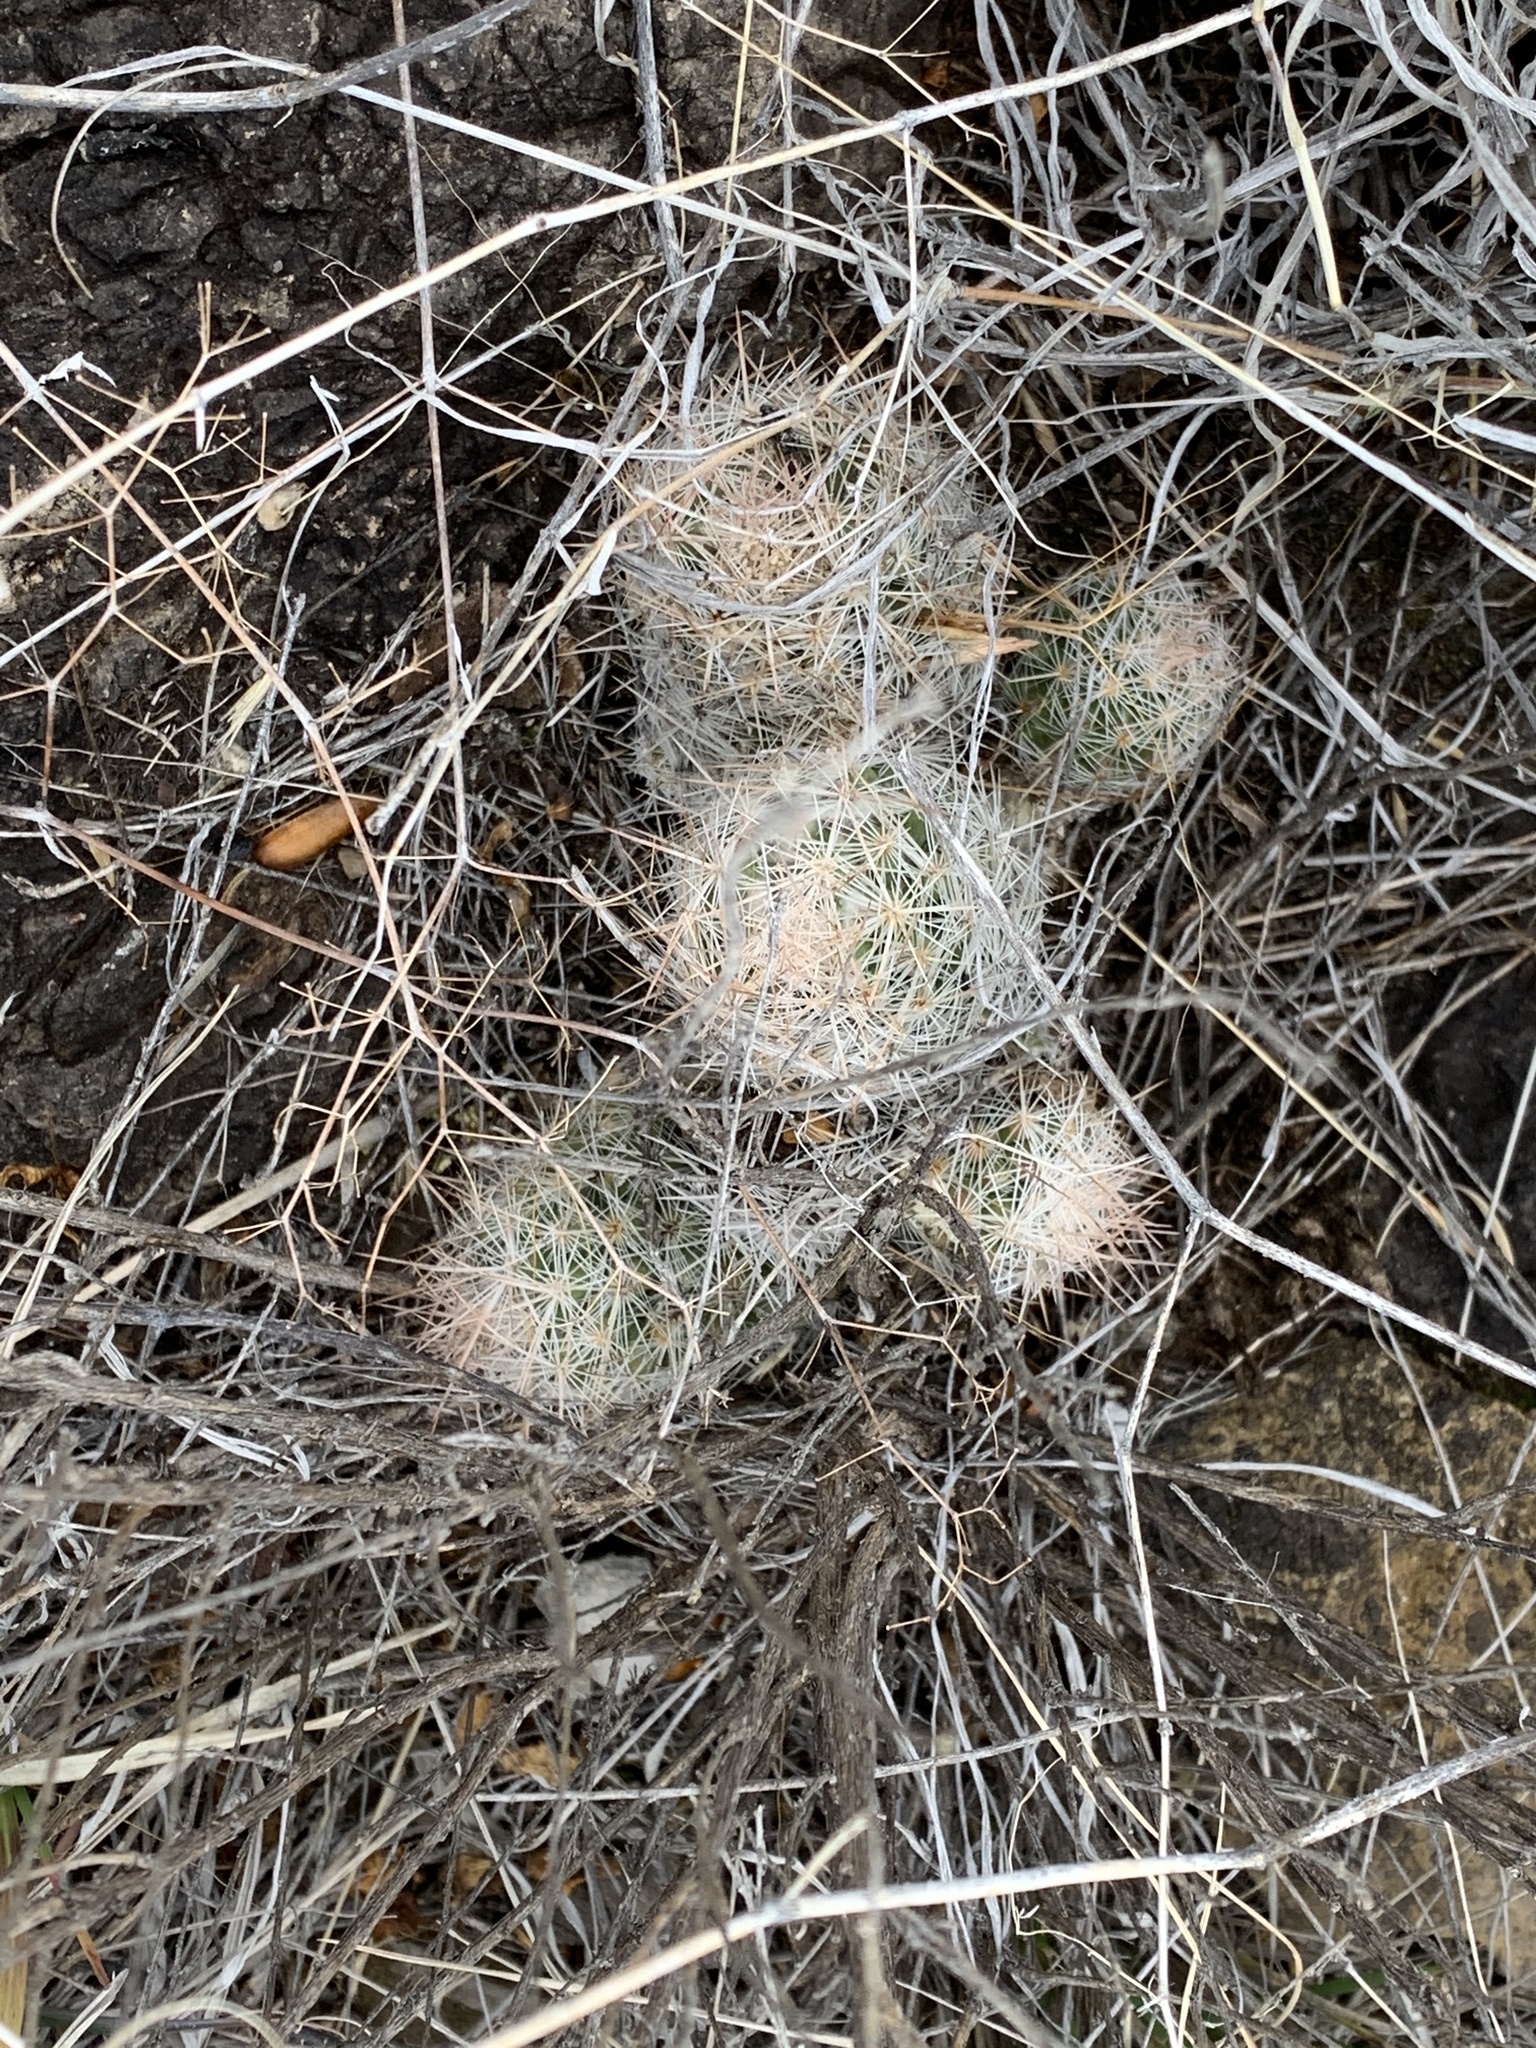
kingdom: Plantae
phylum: Tracheophyta
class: Magnoliopsida
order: Caryophyllales
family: Cactaceae
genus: Pelecyphora
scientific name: Pelecyphora tuberculosa
